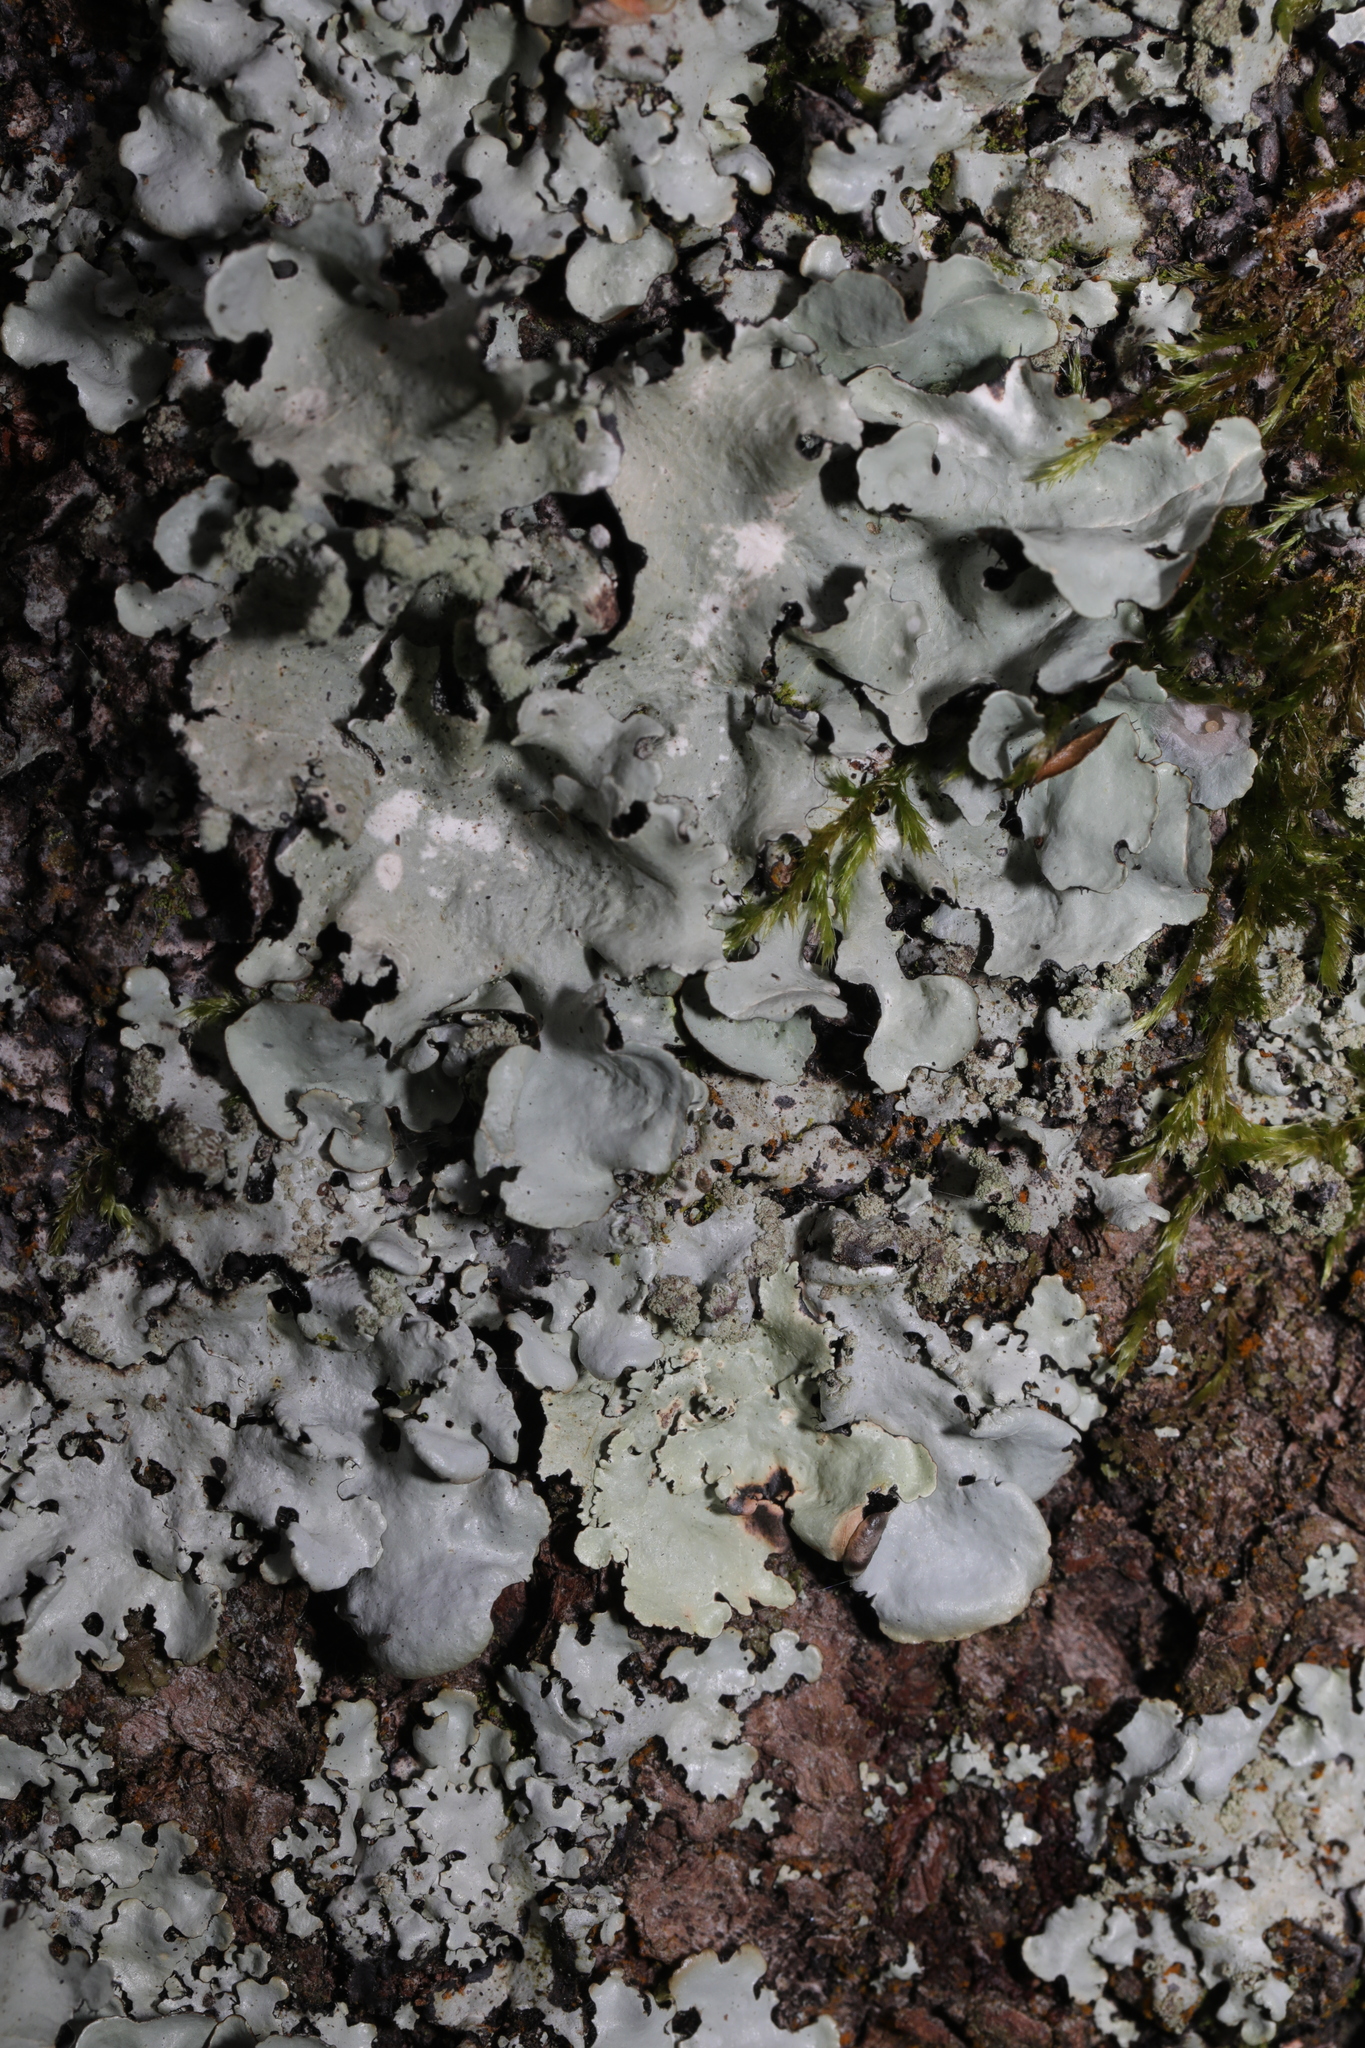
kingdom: Fungi
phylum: Ascomycota
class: Lecanoromycetes
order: Lecanorales
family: Parmeliaceae
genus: Parmotrema
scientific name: Parmotrema perlatum
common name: Black stone flower
